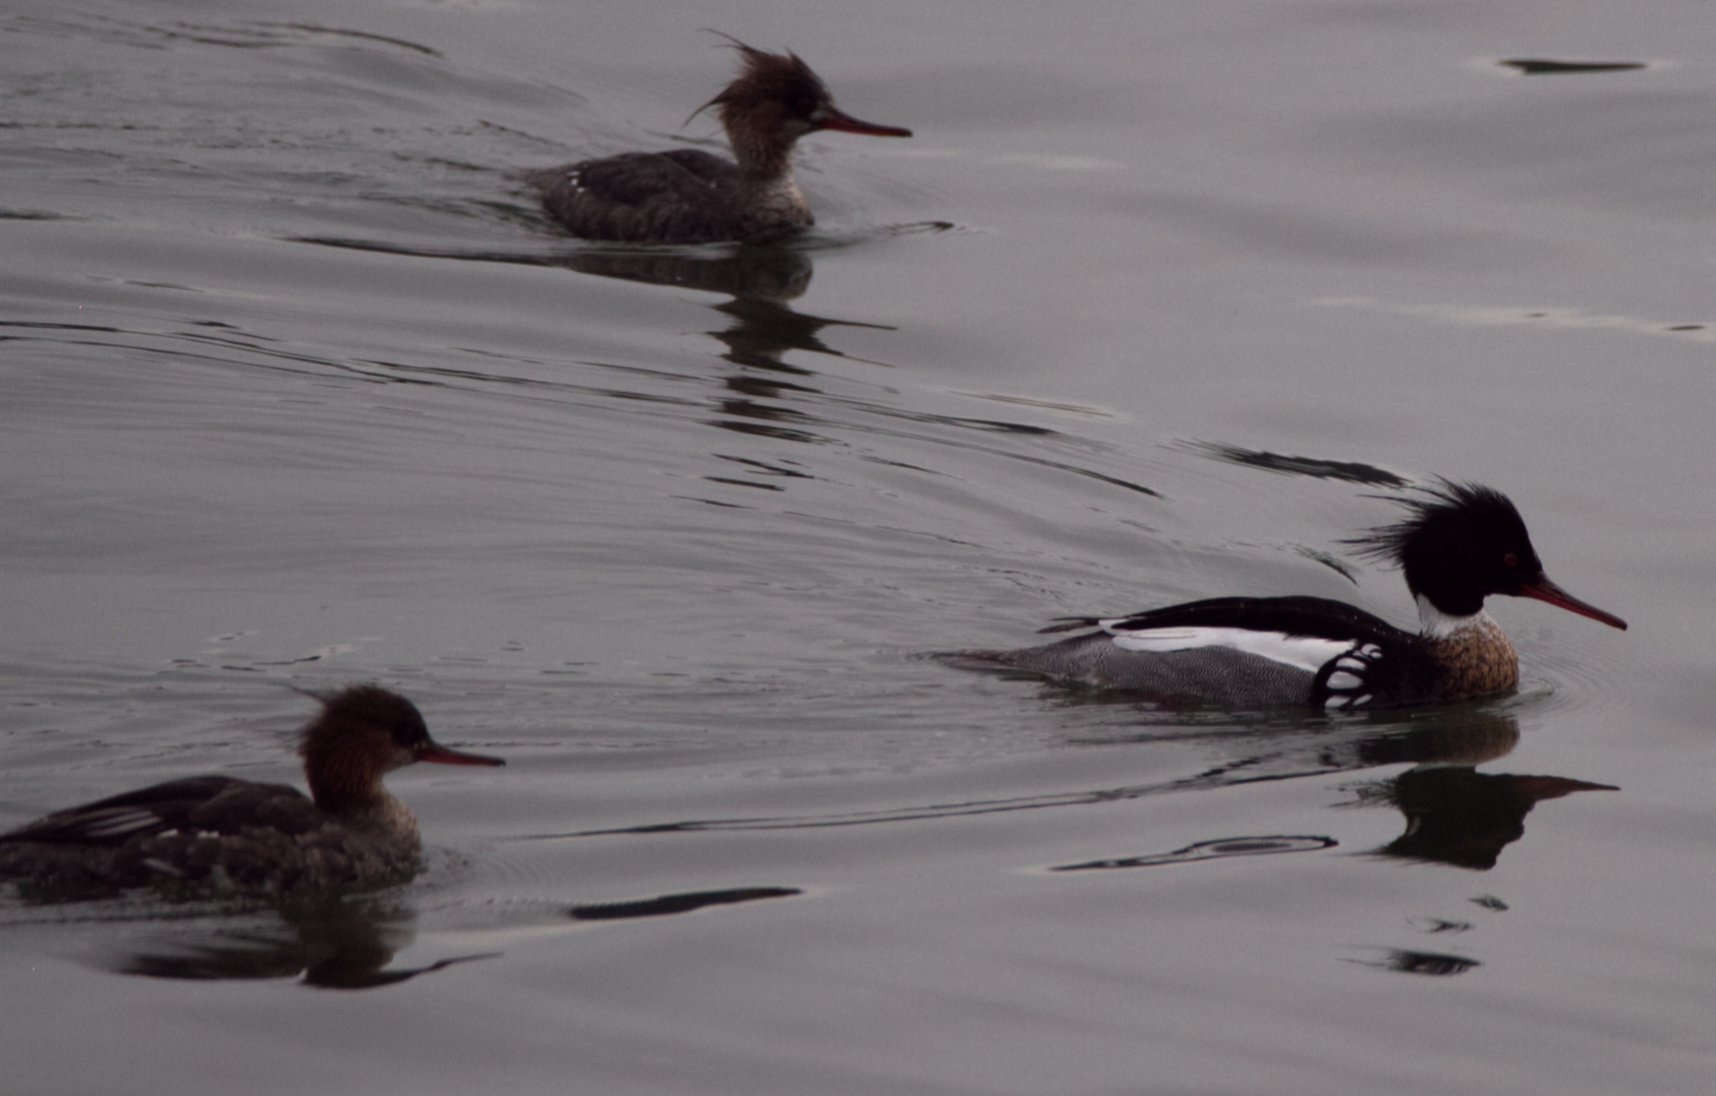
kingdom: Animalia
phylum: Chordata
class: Aves
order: Anseriformes
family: Anatidae
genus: Mergus
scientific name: Mergus serrator
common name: Red-breasted merganser
